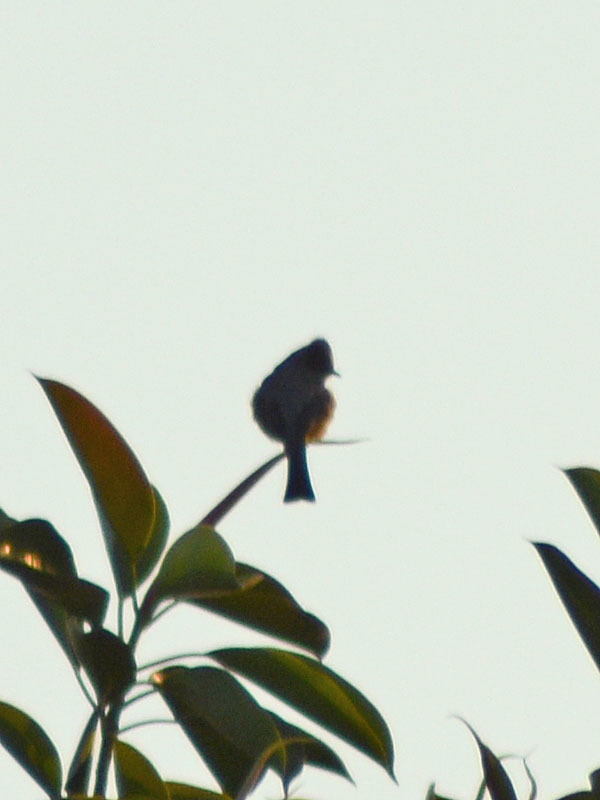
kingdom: Animalia
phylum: Chordata
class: Aves
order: Passeriformes
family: Ptilogonatidae
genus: Ptilogonys
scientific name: Ptilogonys cinereus
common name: Gray silky-flycatcher
